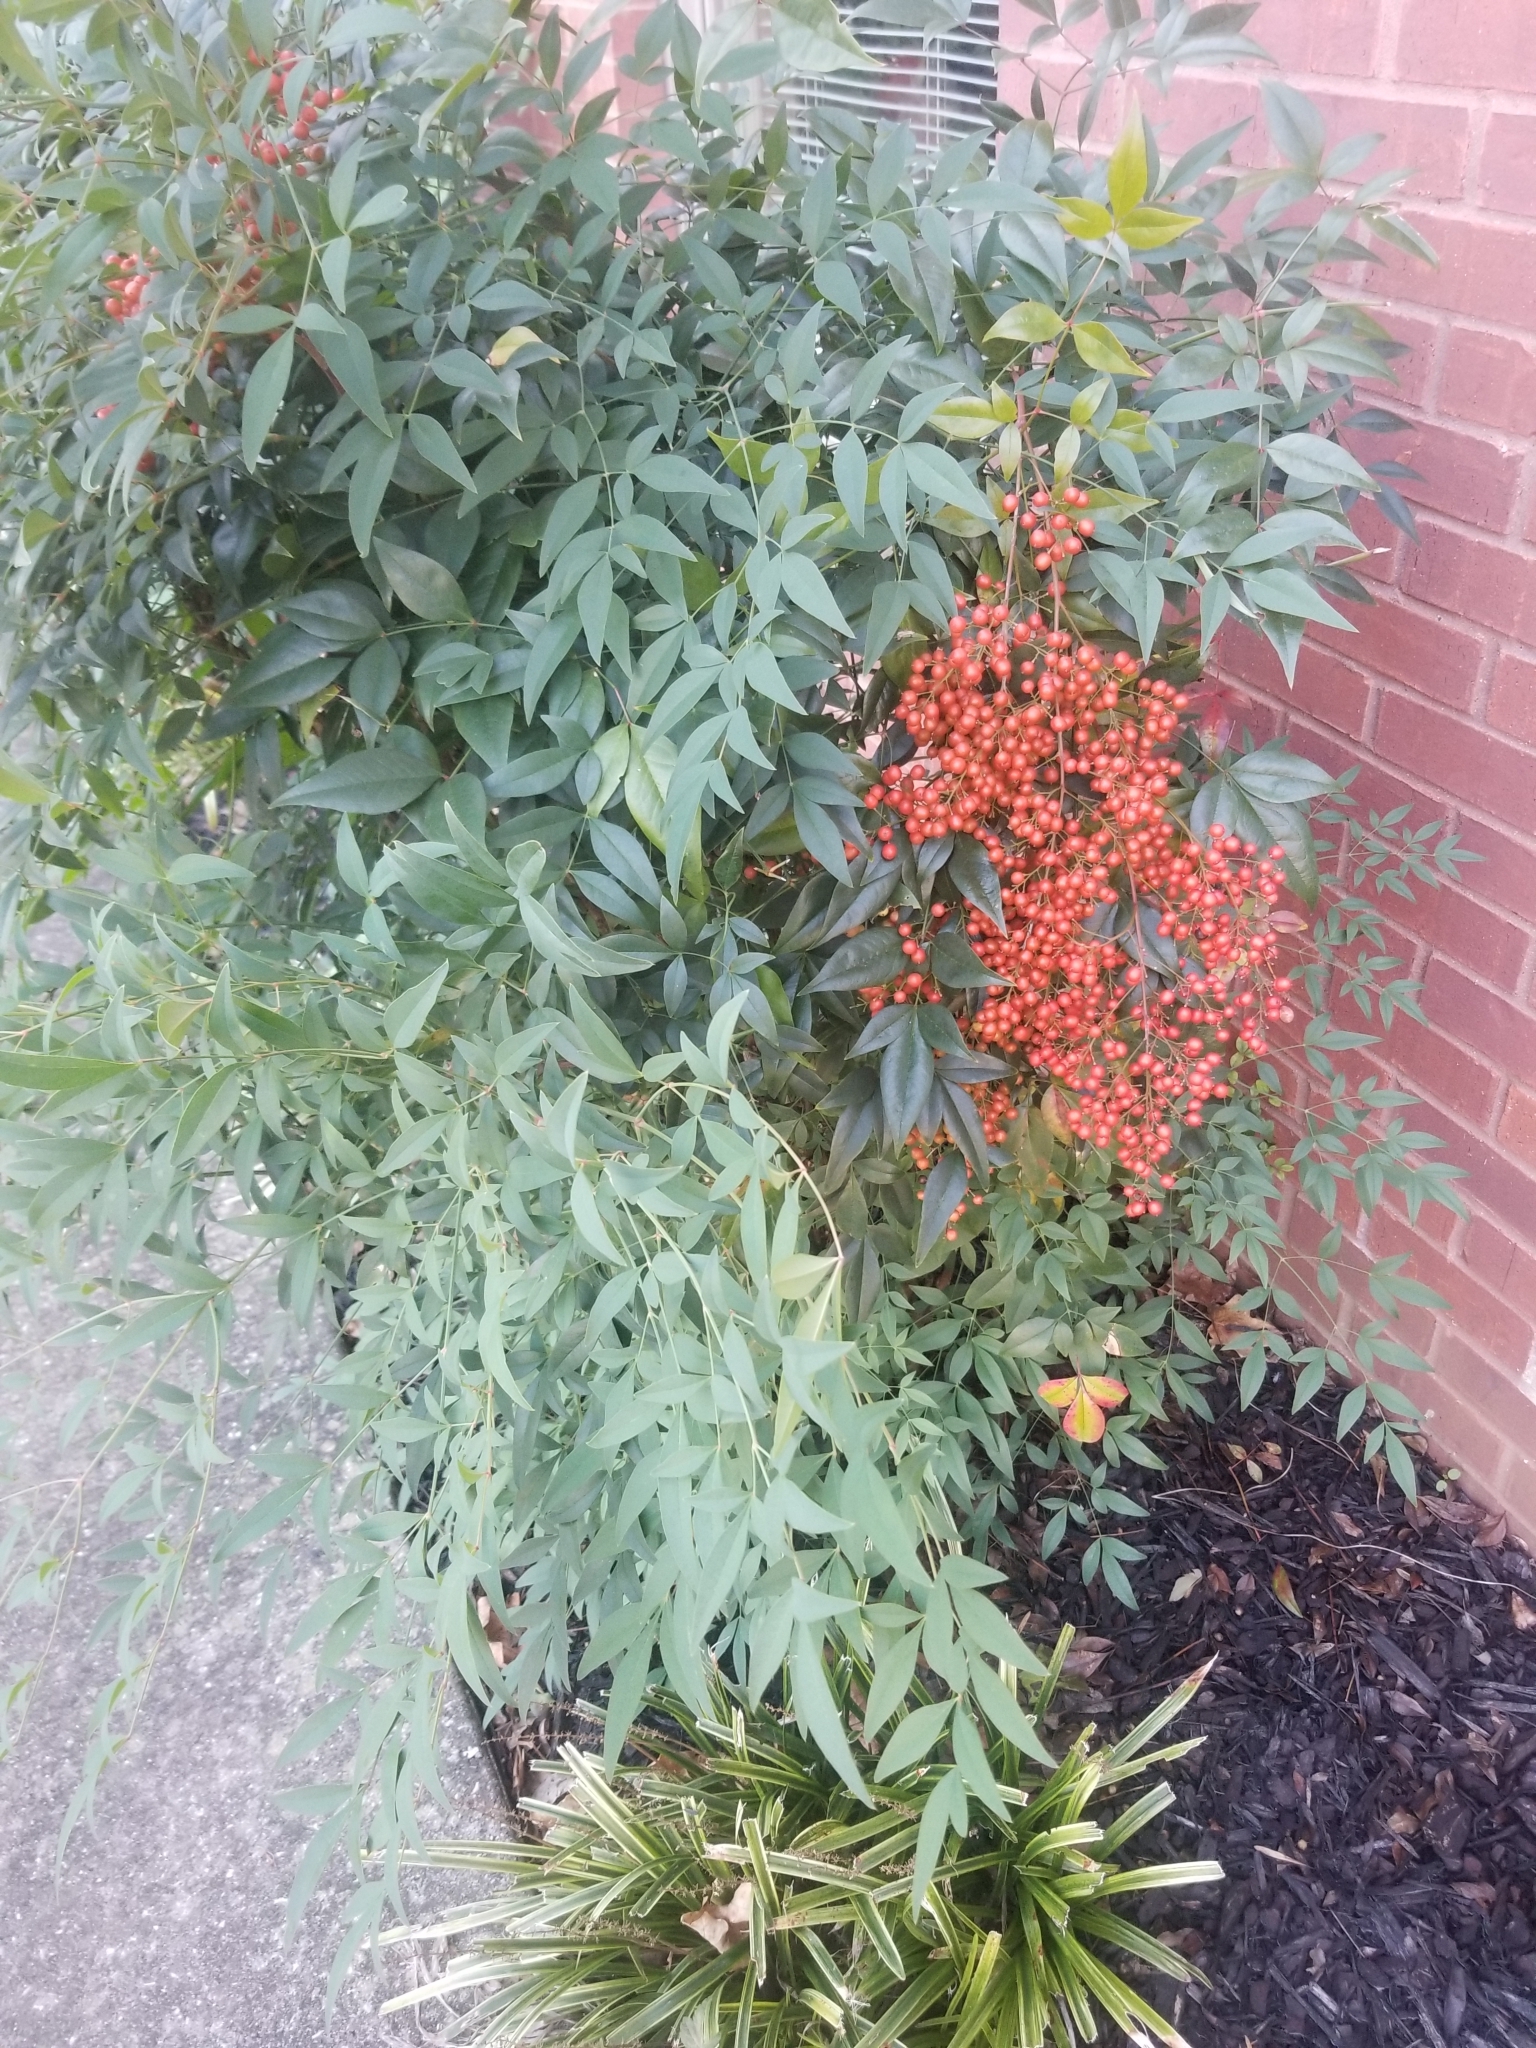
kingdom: Plantae
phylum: Tracheophyta
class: Magnoliopsida
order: Ranunculales
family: Berberidaceae
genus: Nandina
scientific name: Nandina domestica
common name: Sacred bamboo
